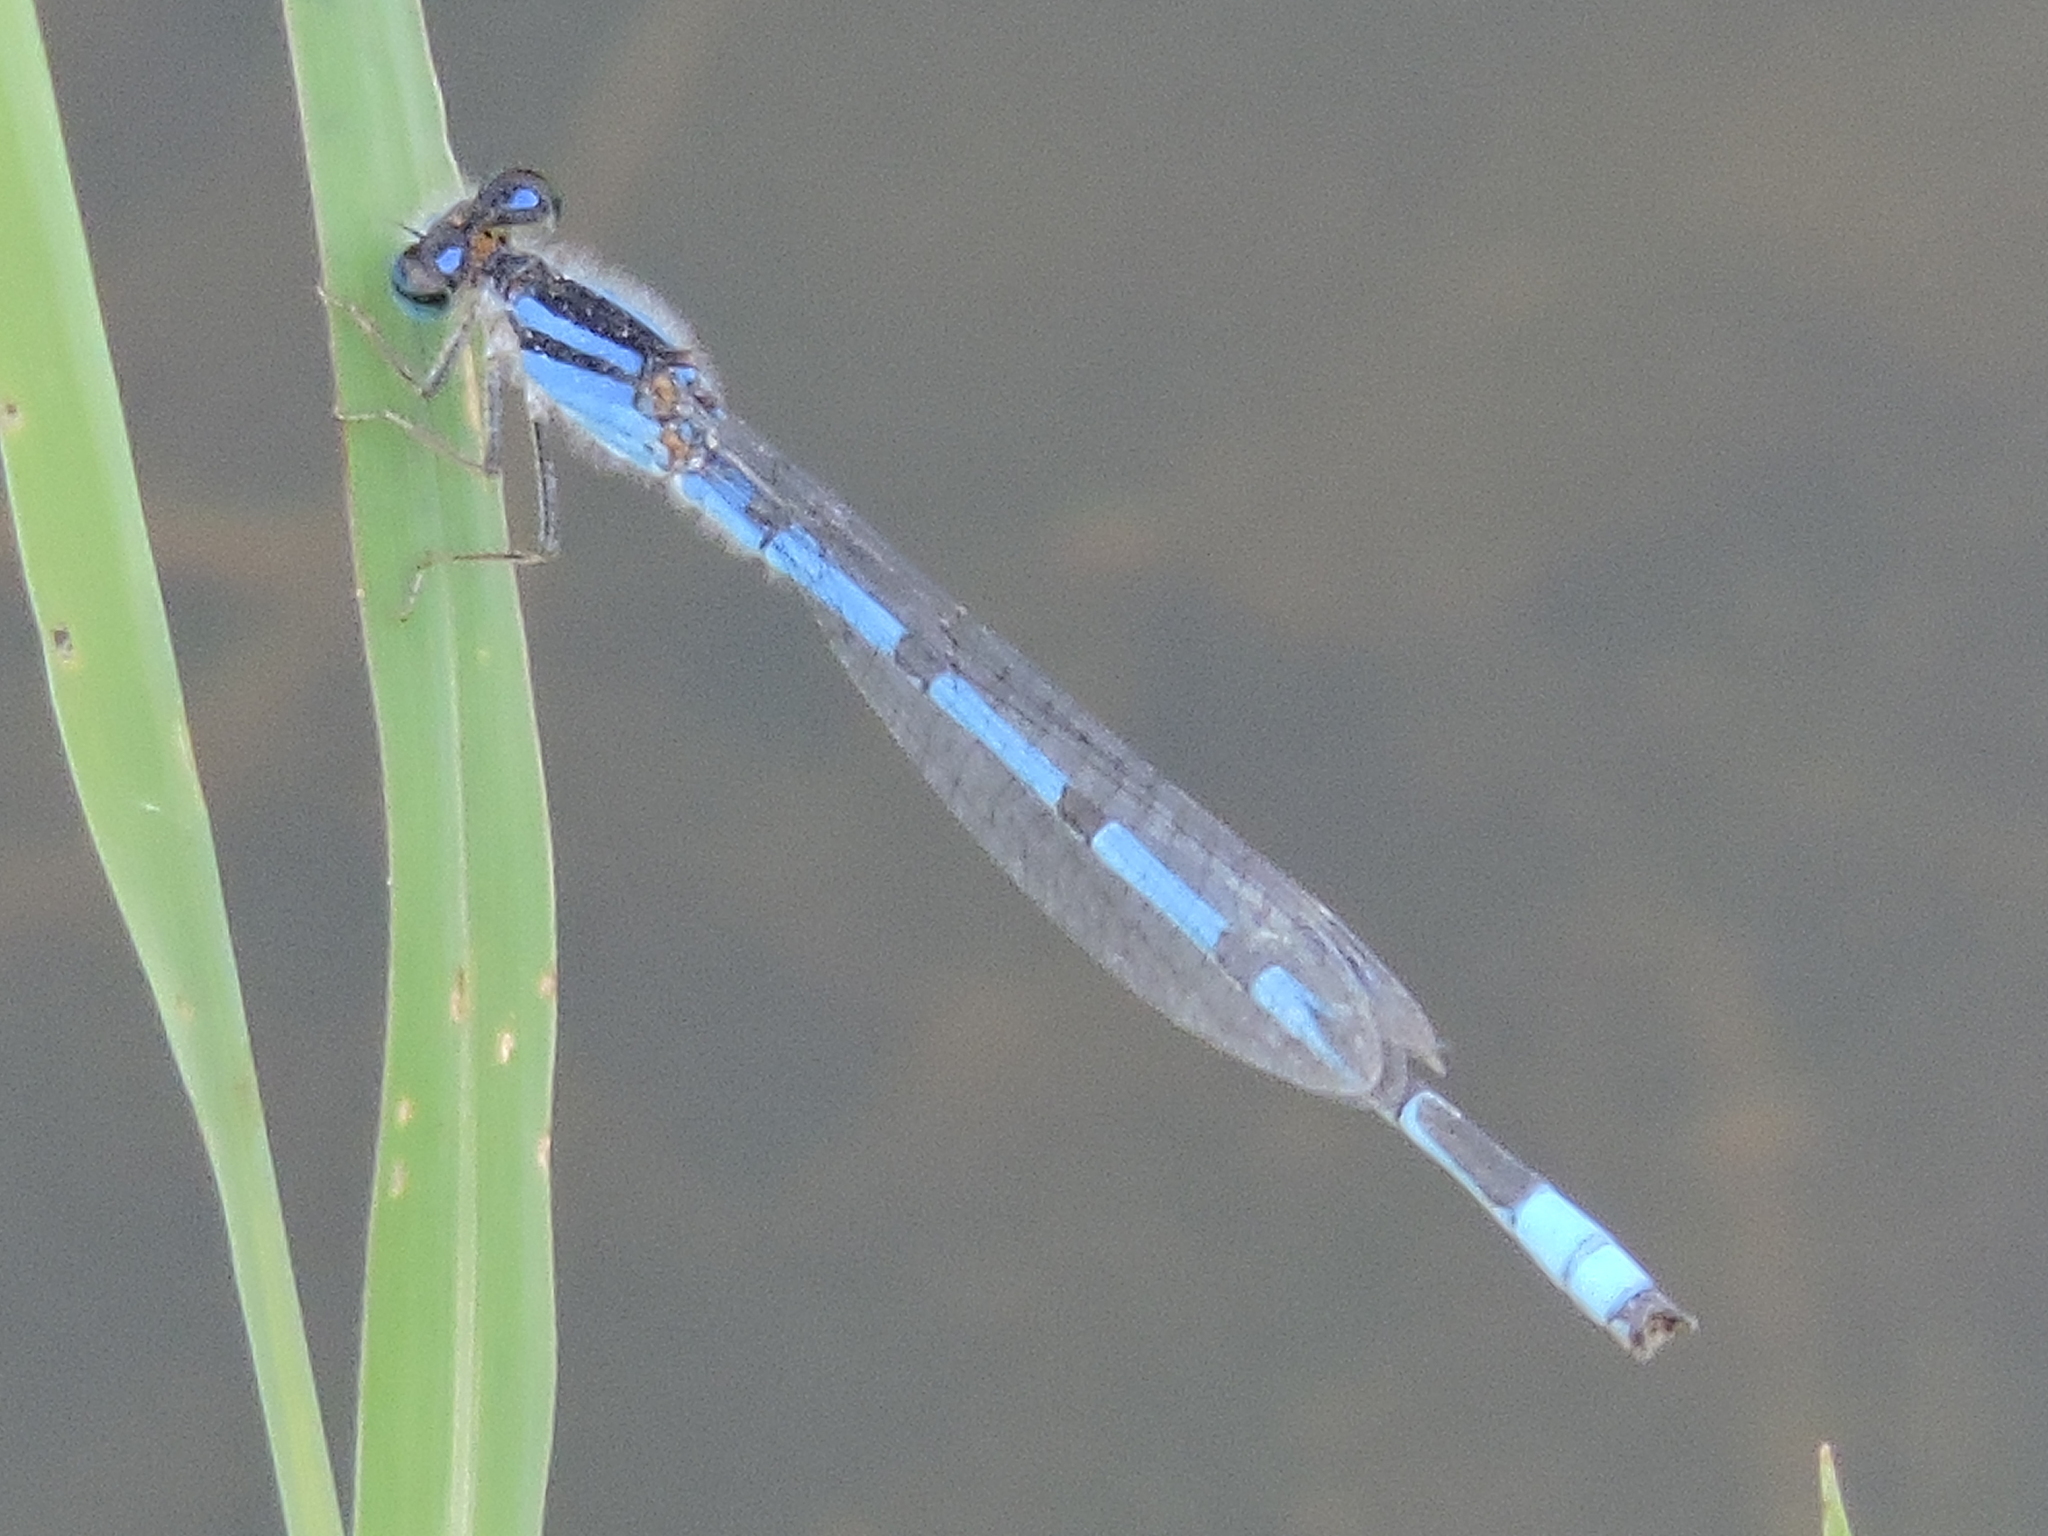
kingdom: Animalia
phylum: Arthropoda
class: Insecta
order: Odonata
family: Coenagrionidae
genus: Enallagma
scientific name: Enallagma civile
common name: Damselfly
